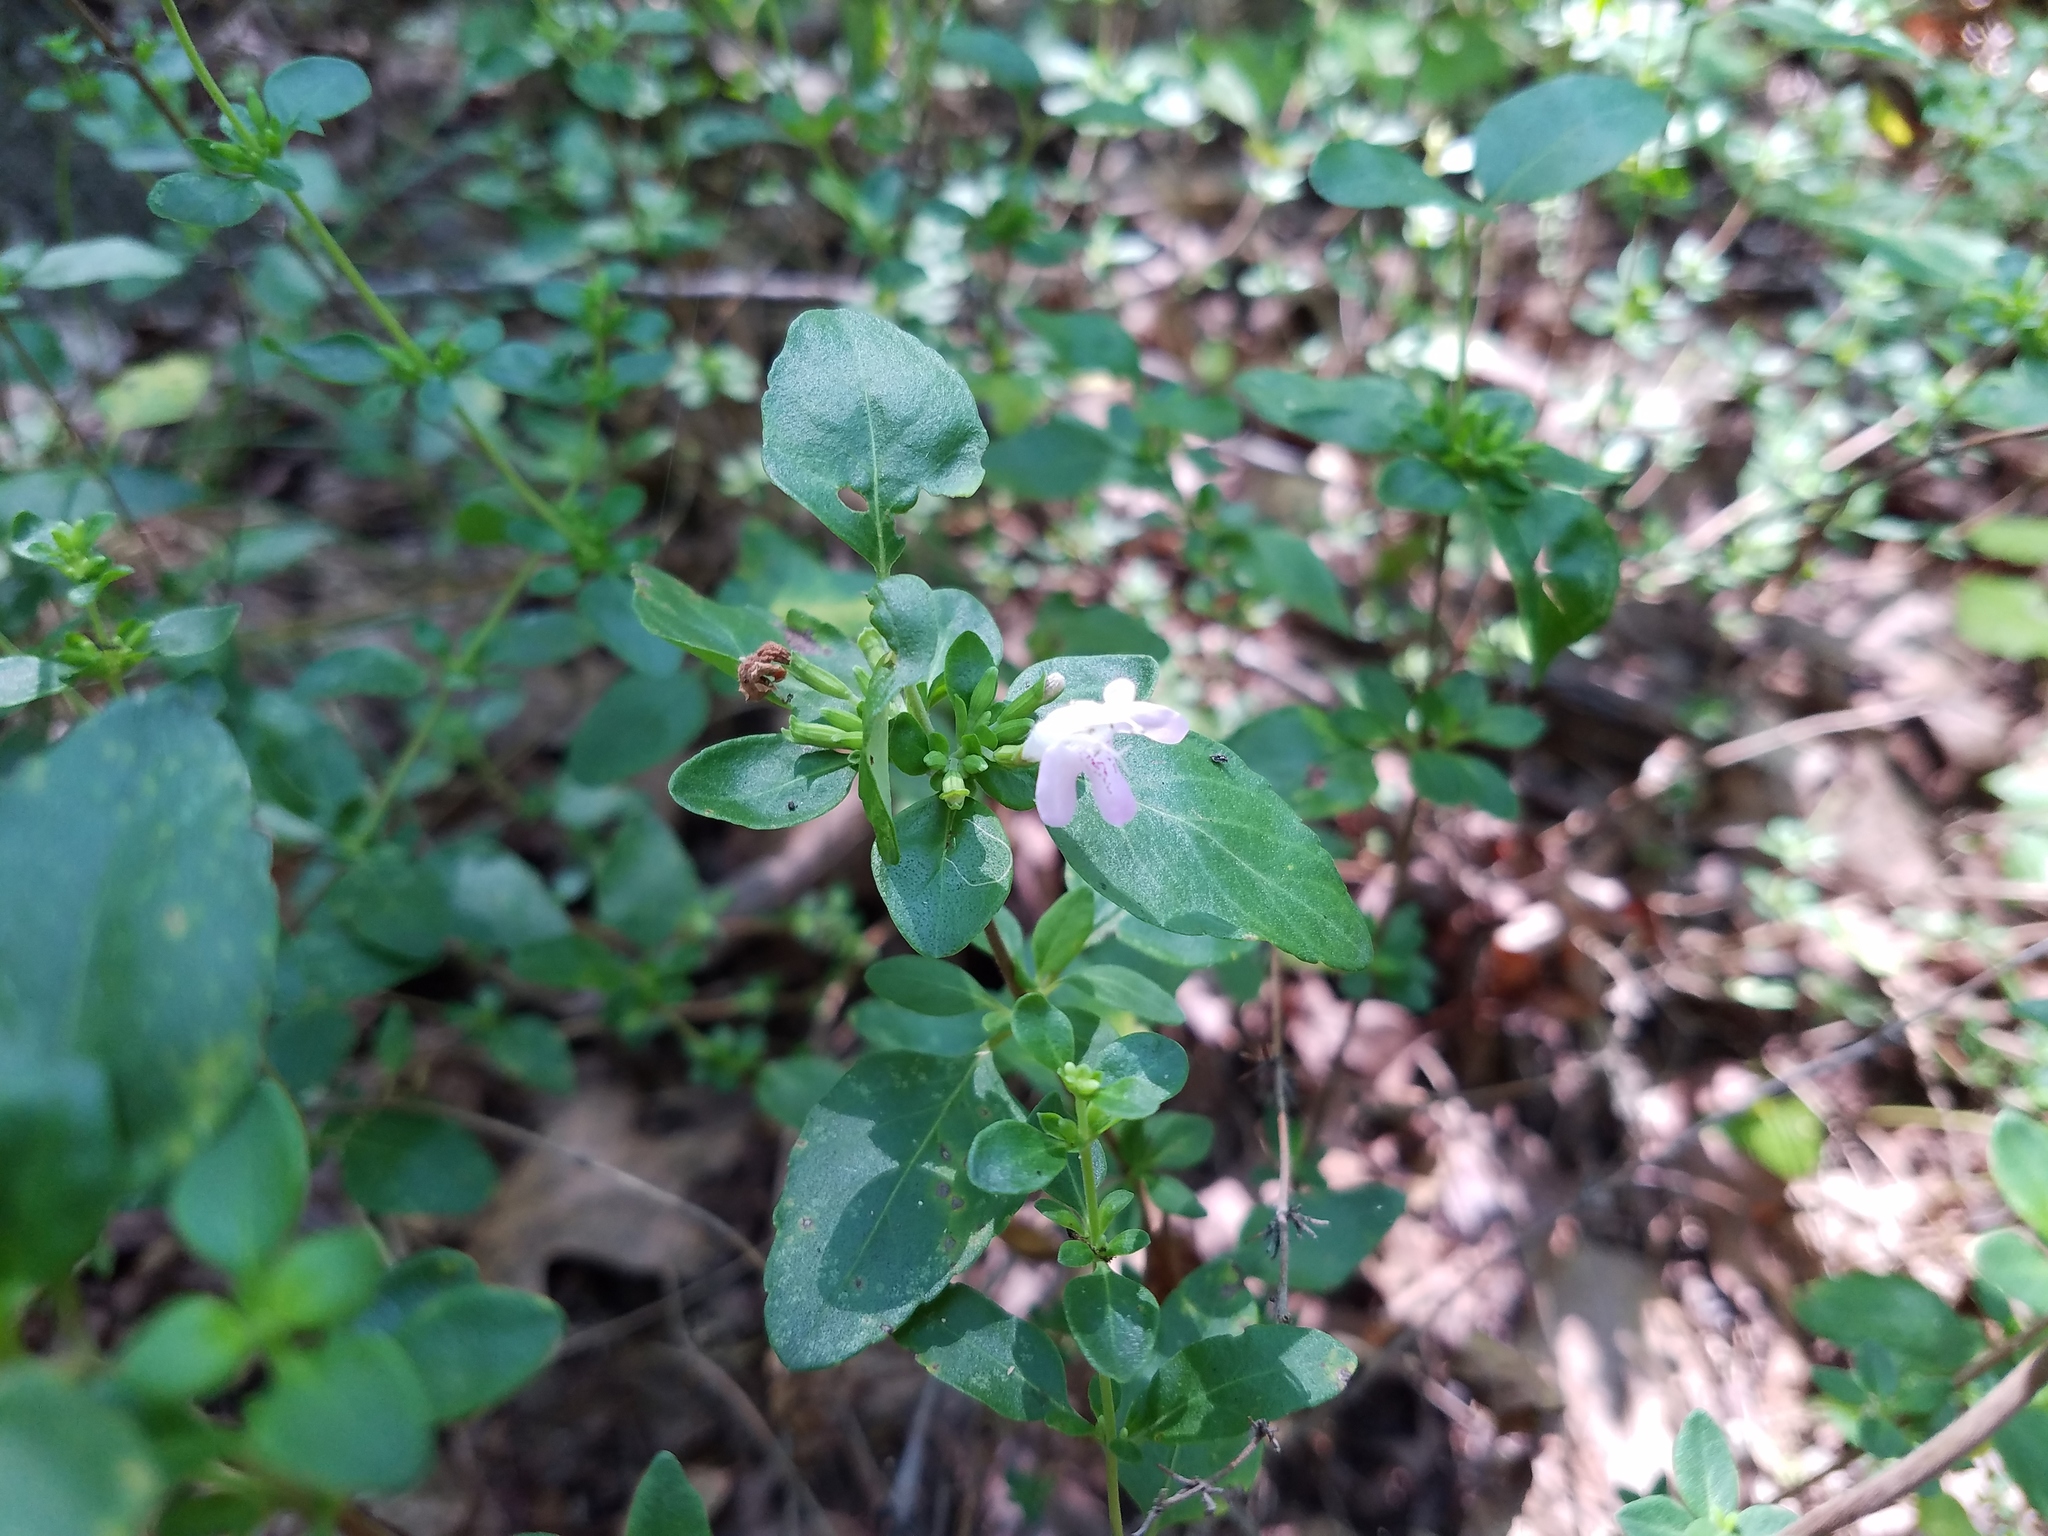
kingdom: Plantae
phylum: Tracheophyta
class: Magnoliopsida
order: Lamiales
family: Lamiaceae
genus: Clinopodium
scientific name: Clinopodium carolinianum
